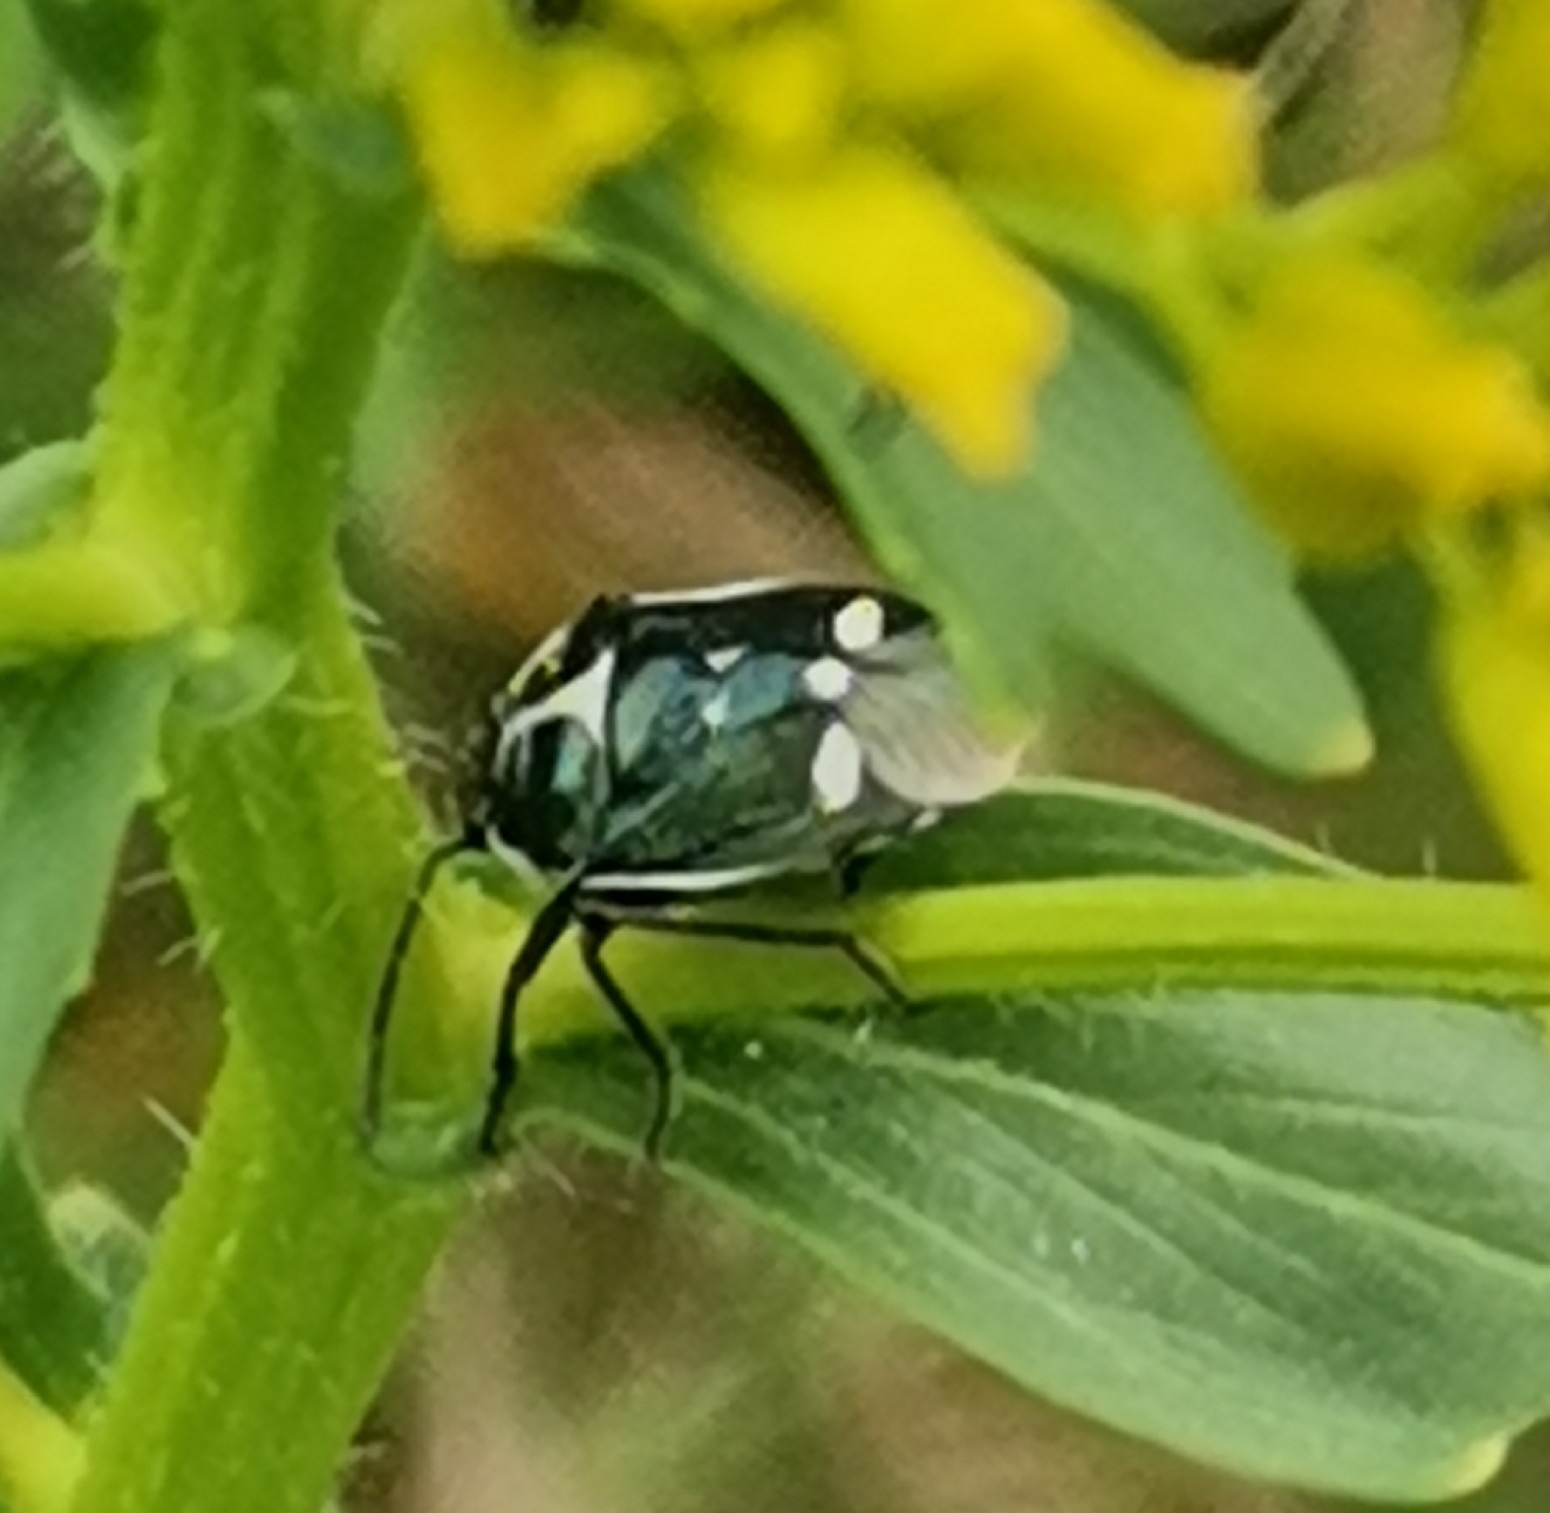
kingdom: Animalia
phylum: Arthropoda
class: Insecta
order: Hemiptera
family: Pentatomidae
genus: Eurydema
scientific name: Eurydema oleracea
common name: Cabbage bug
